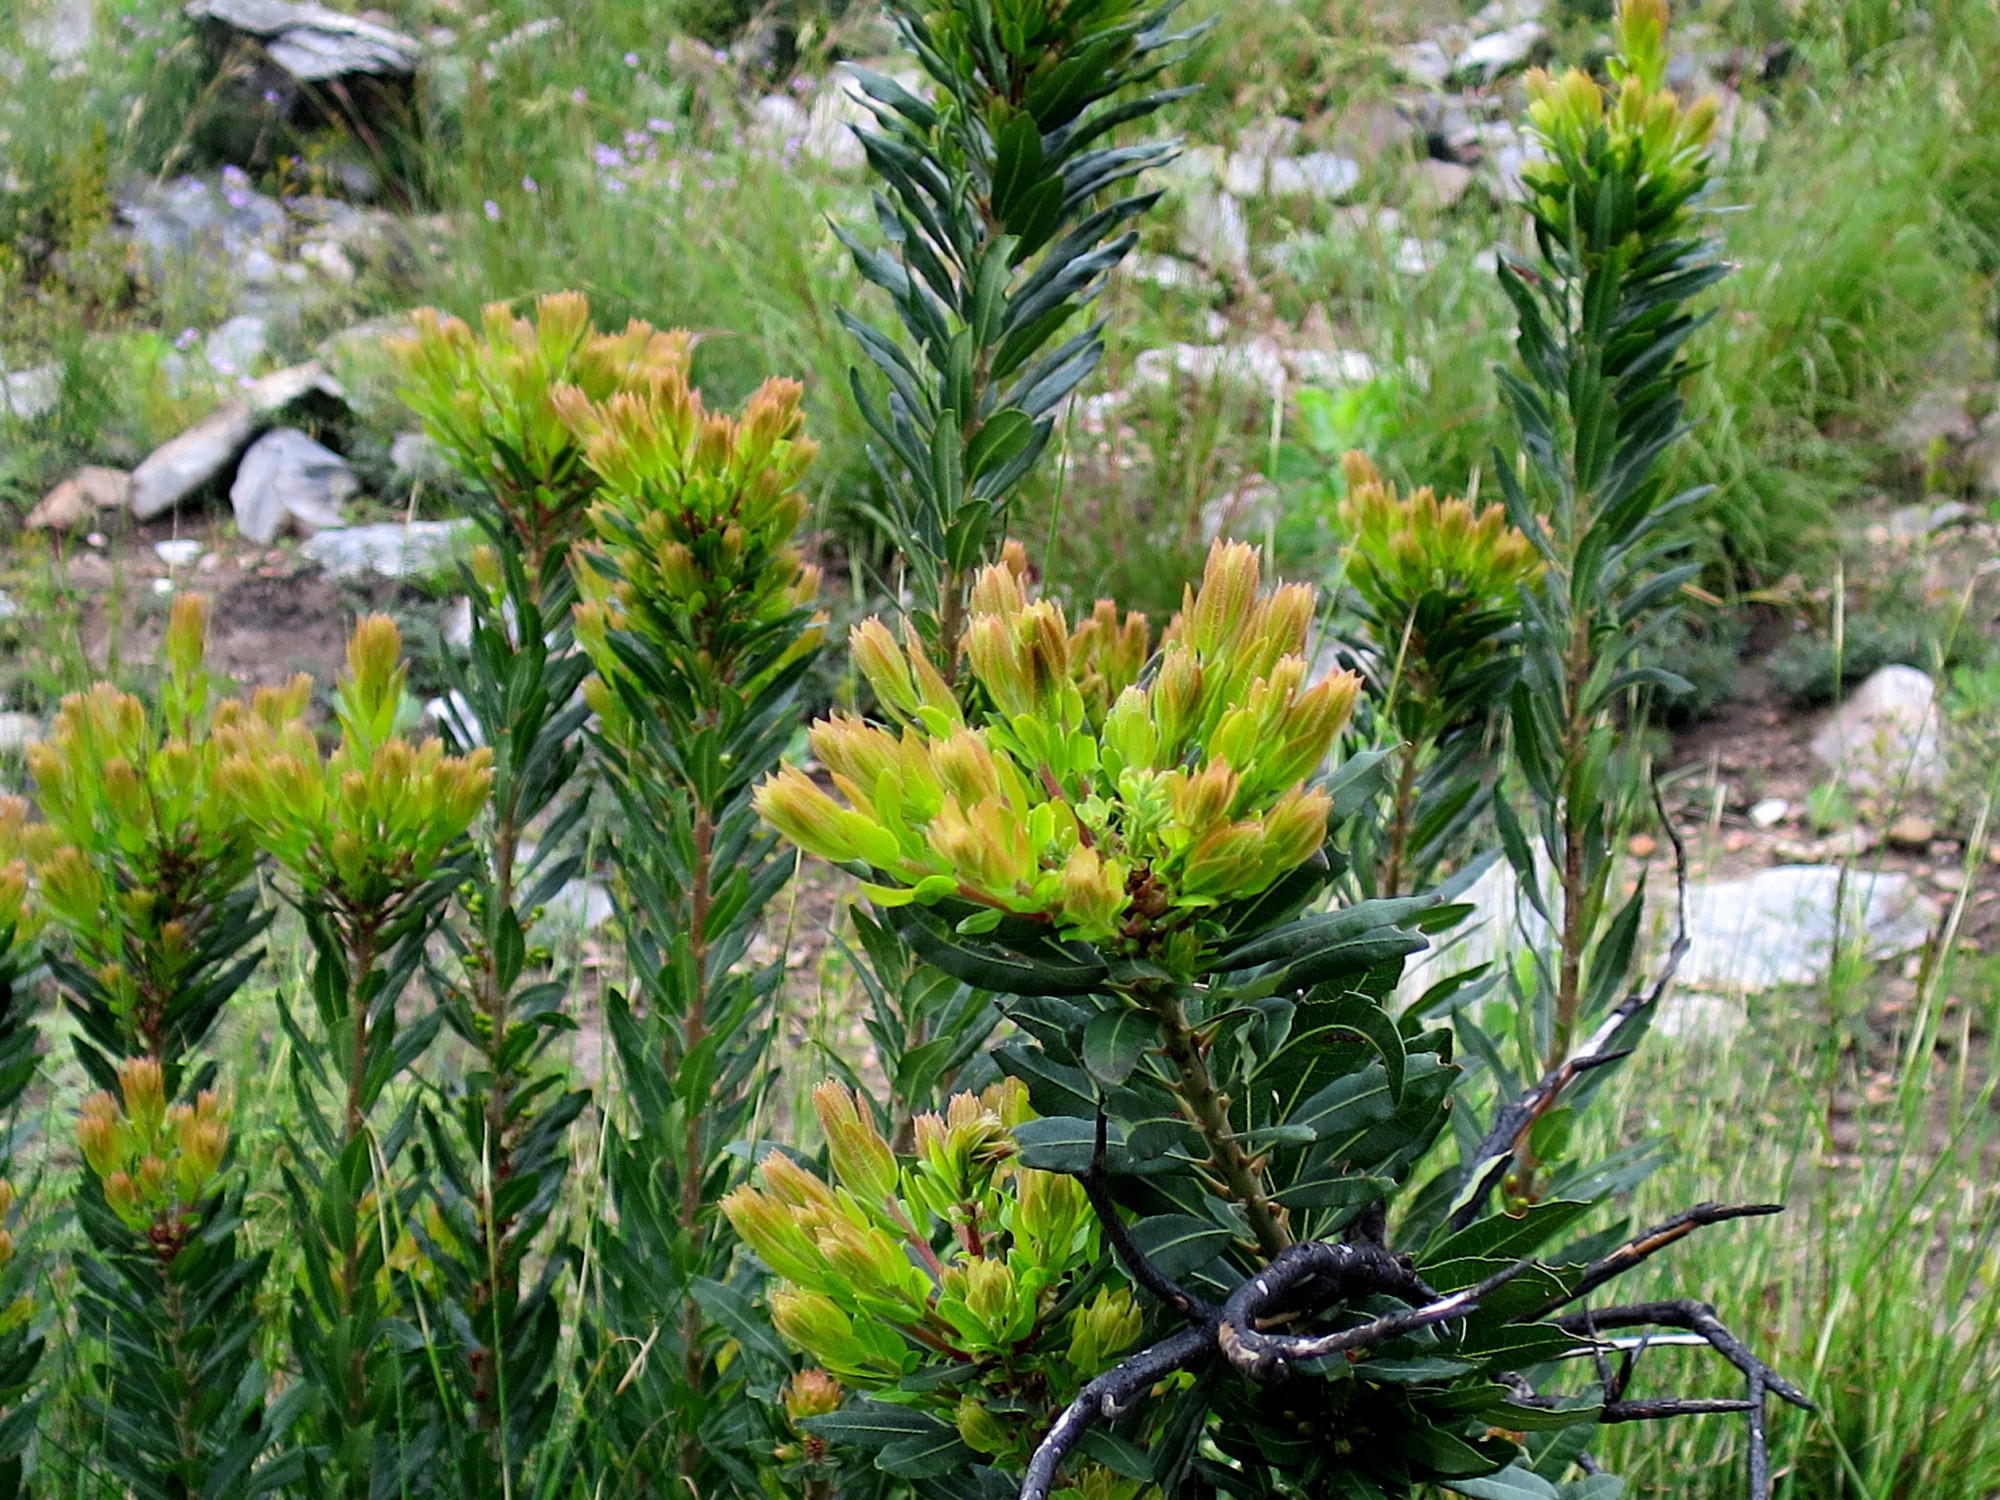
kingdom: Plantae
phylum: Tracheophyta
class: Magnoliopsida
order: Fagales
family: Myricaceae
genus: Morella
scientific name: Morella humilis
